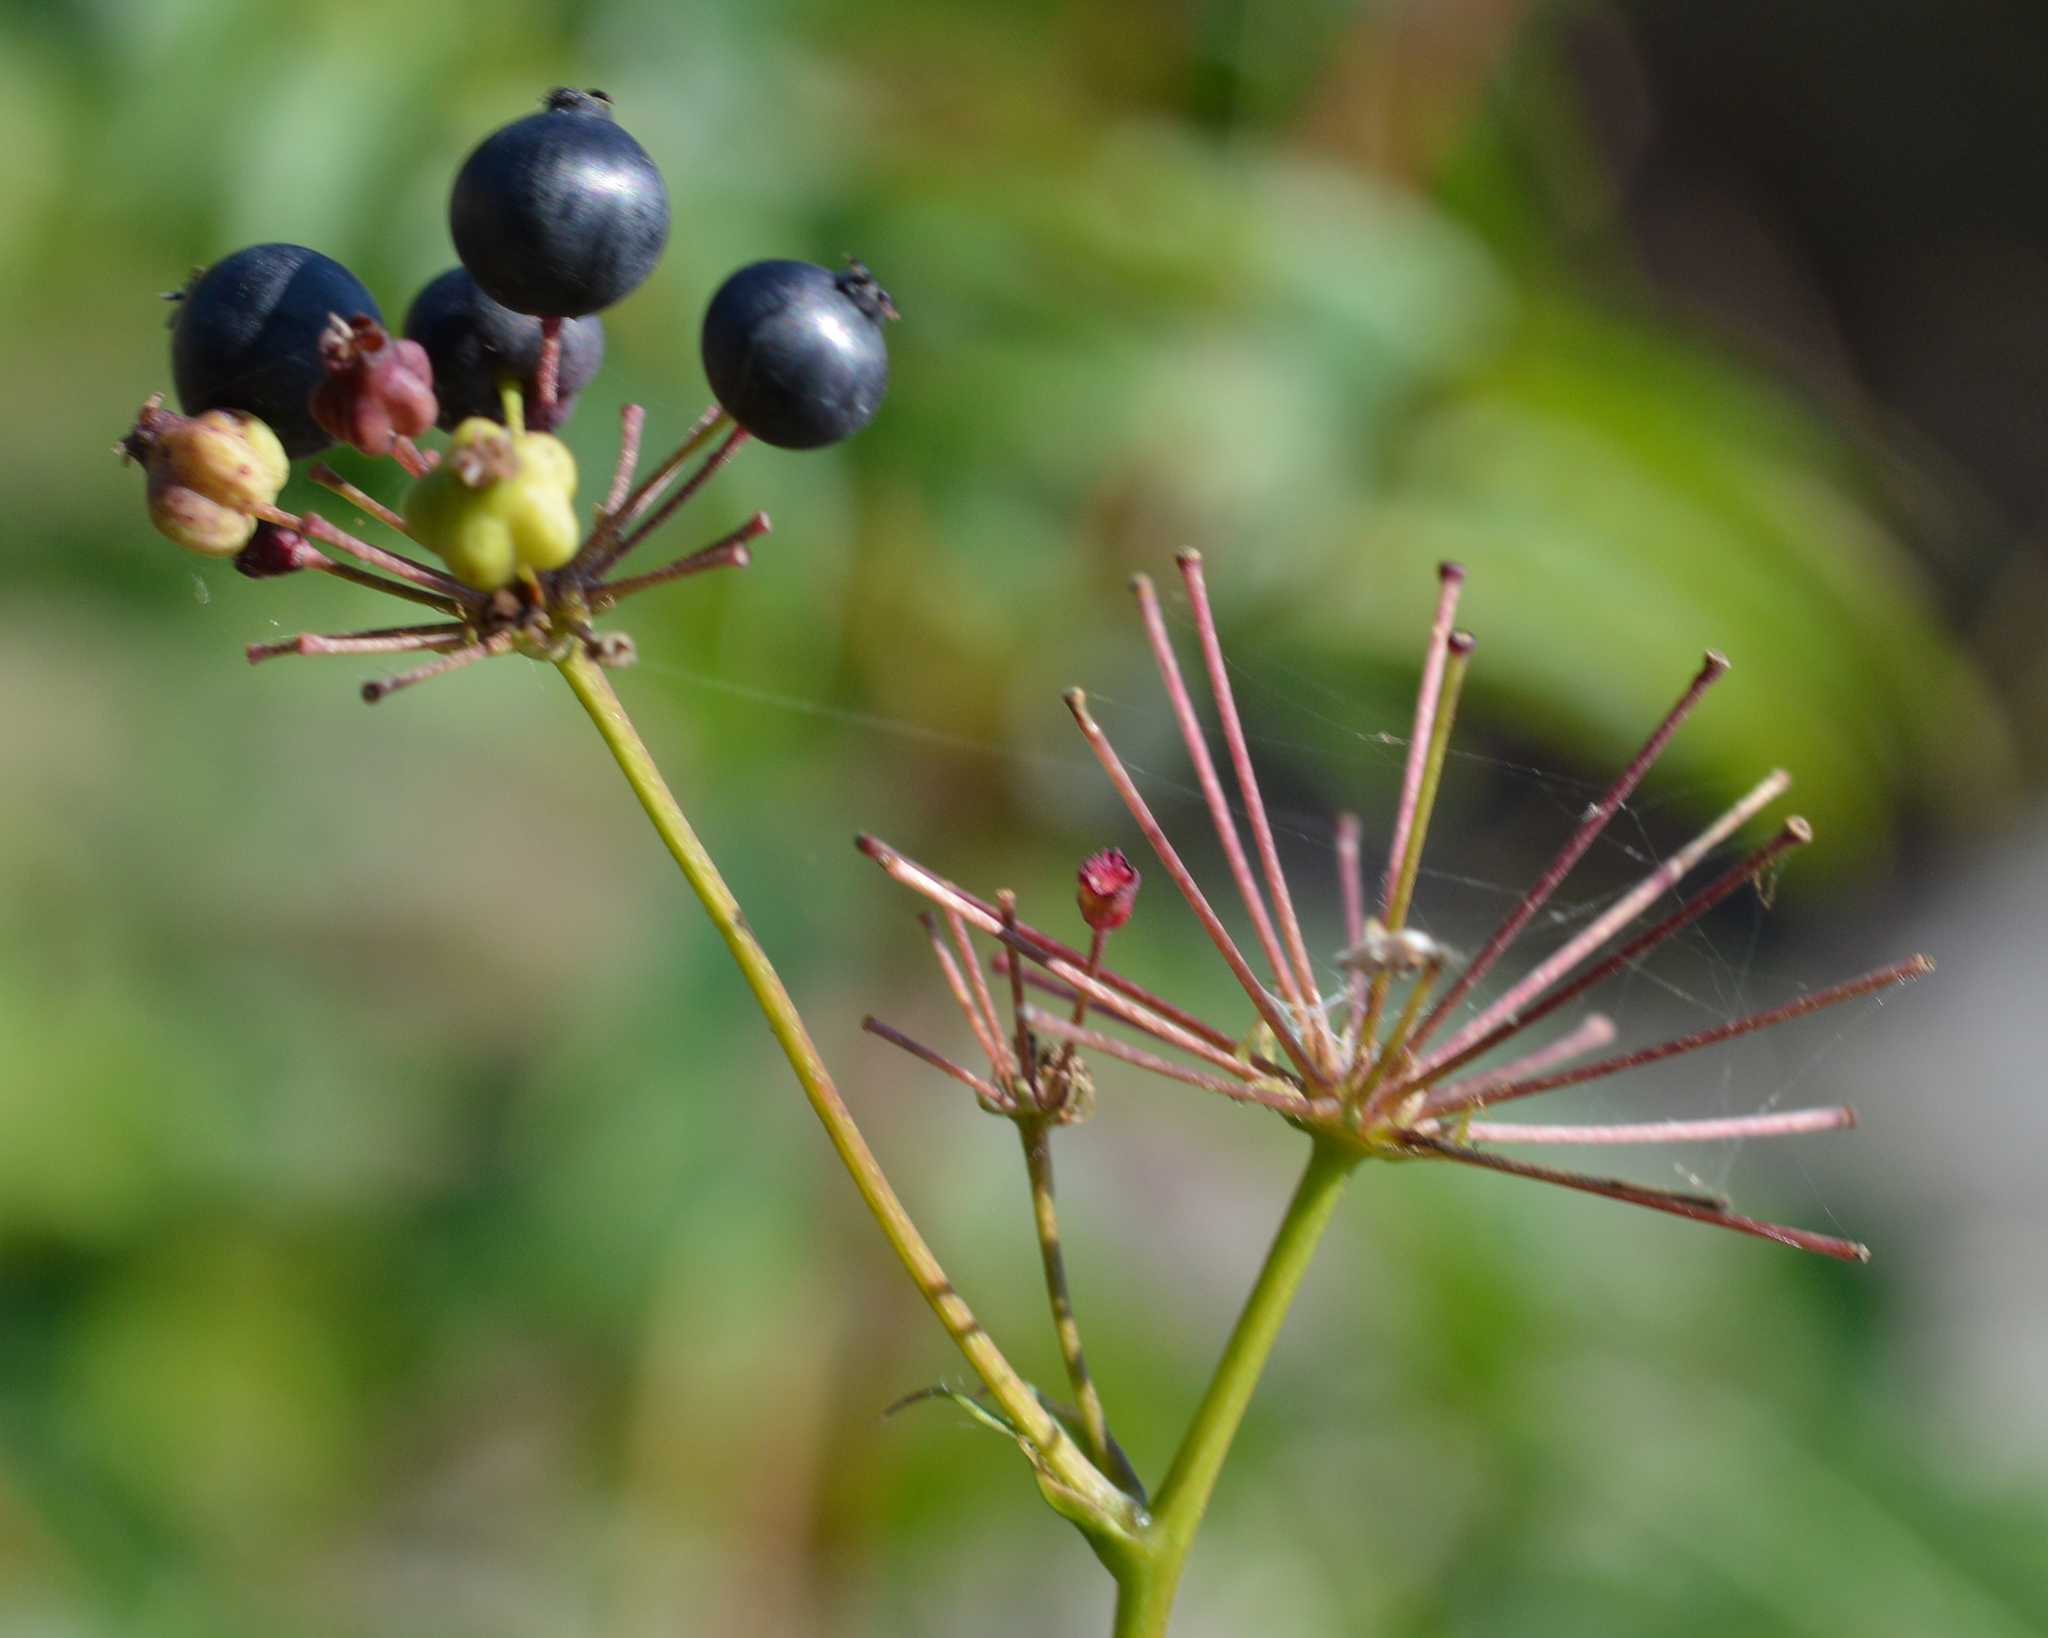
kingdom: Plantae
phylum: Tracheophyta
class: Magnoliopsida
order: Apiales
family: Araliaceae
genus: Aralia
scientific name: Aralia hispida
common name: Bristly sarsaparilla
